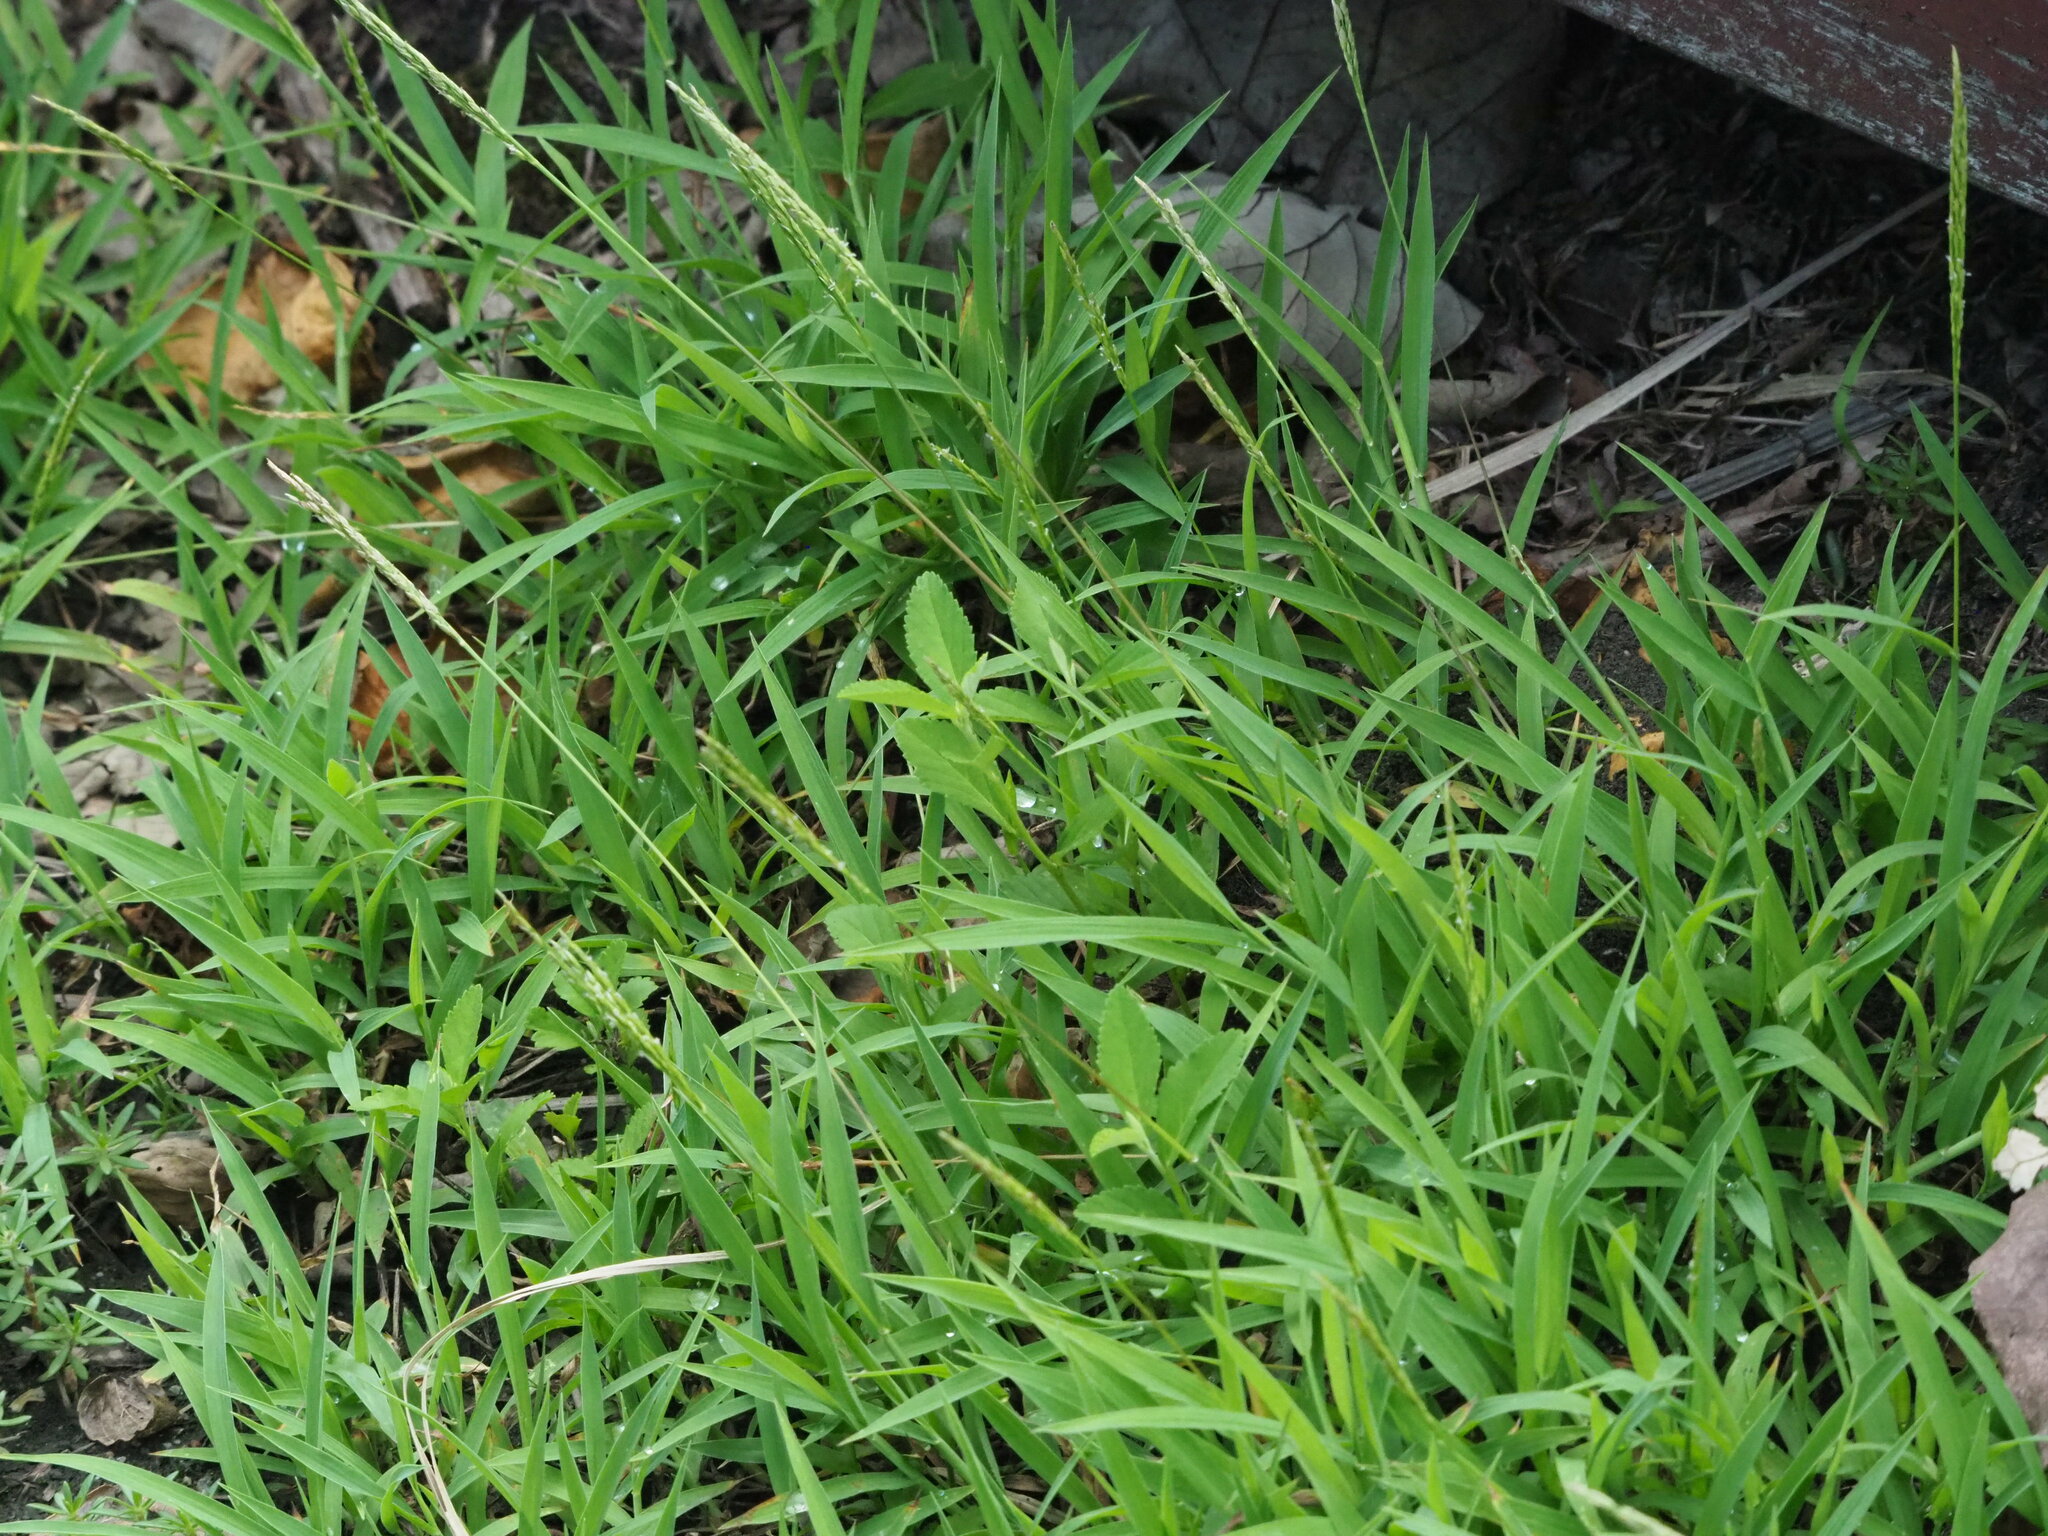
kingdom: Plantae
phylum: Tracheophyta
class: Liliopsida
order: Poales
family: Poaceae
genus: Digitaria
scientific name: Digitaria ciliaris
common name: Tropical finger-grass
